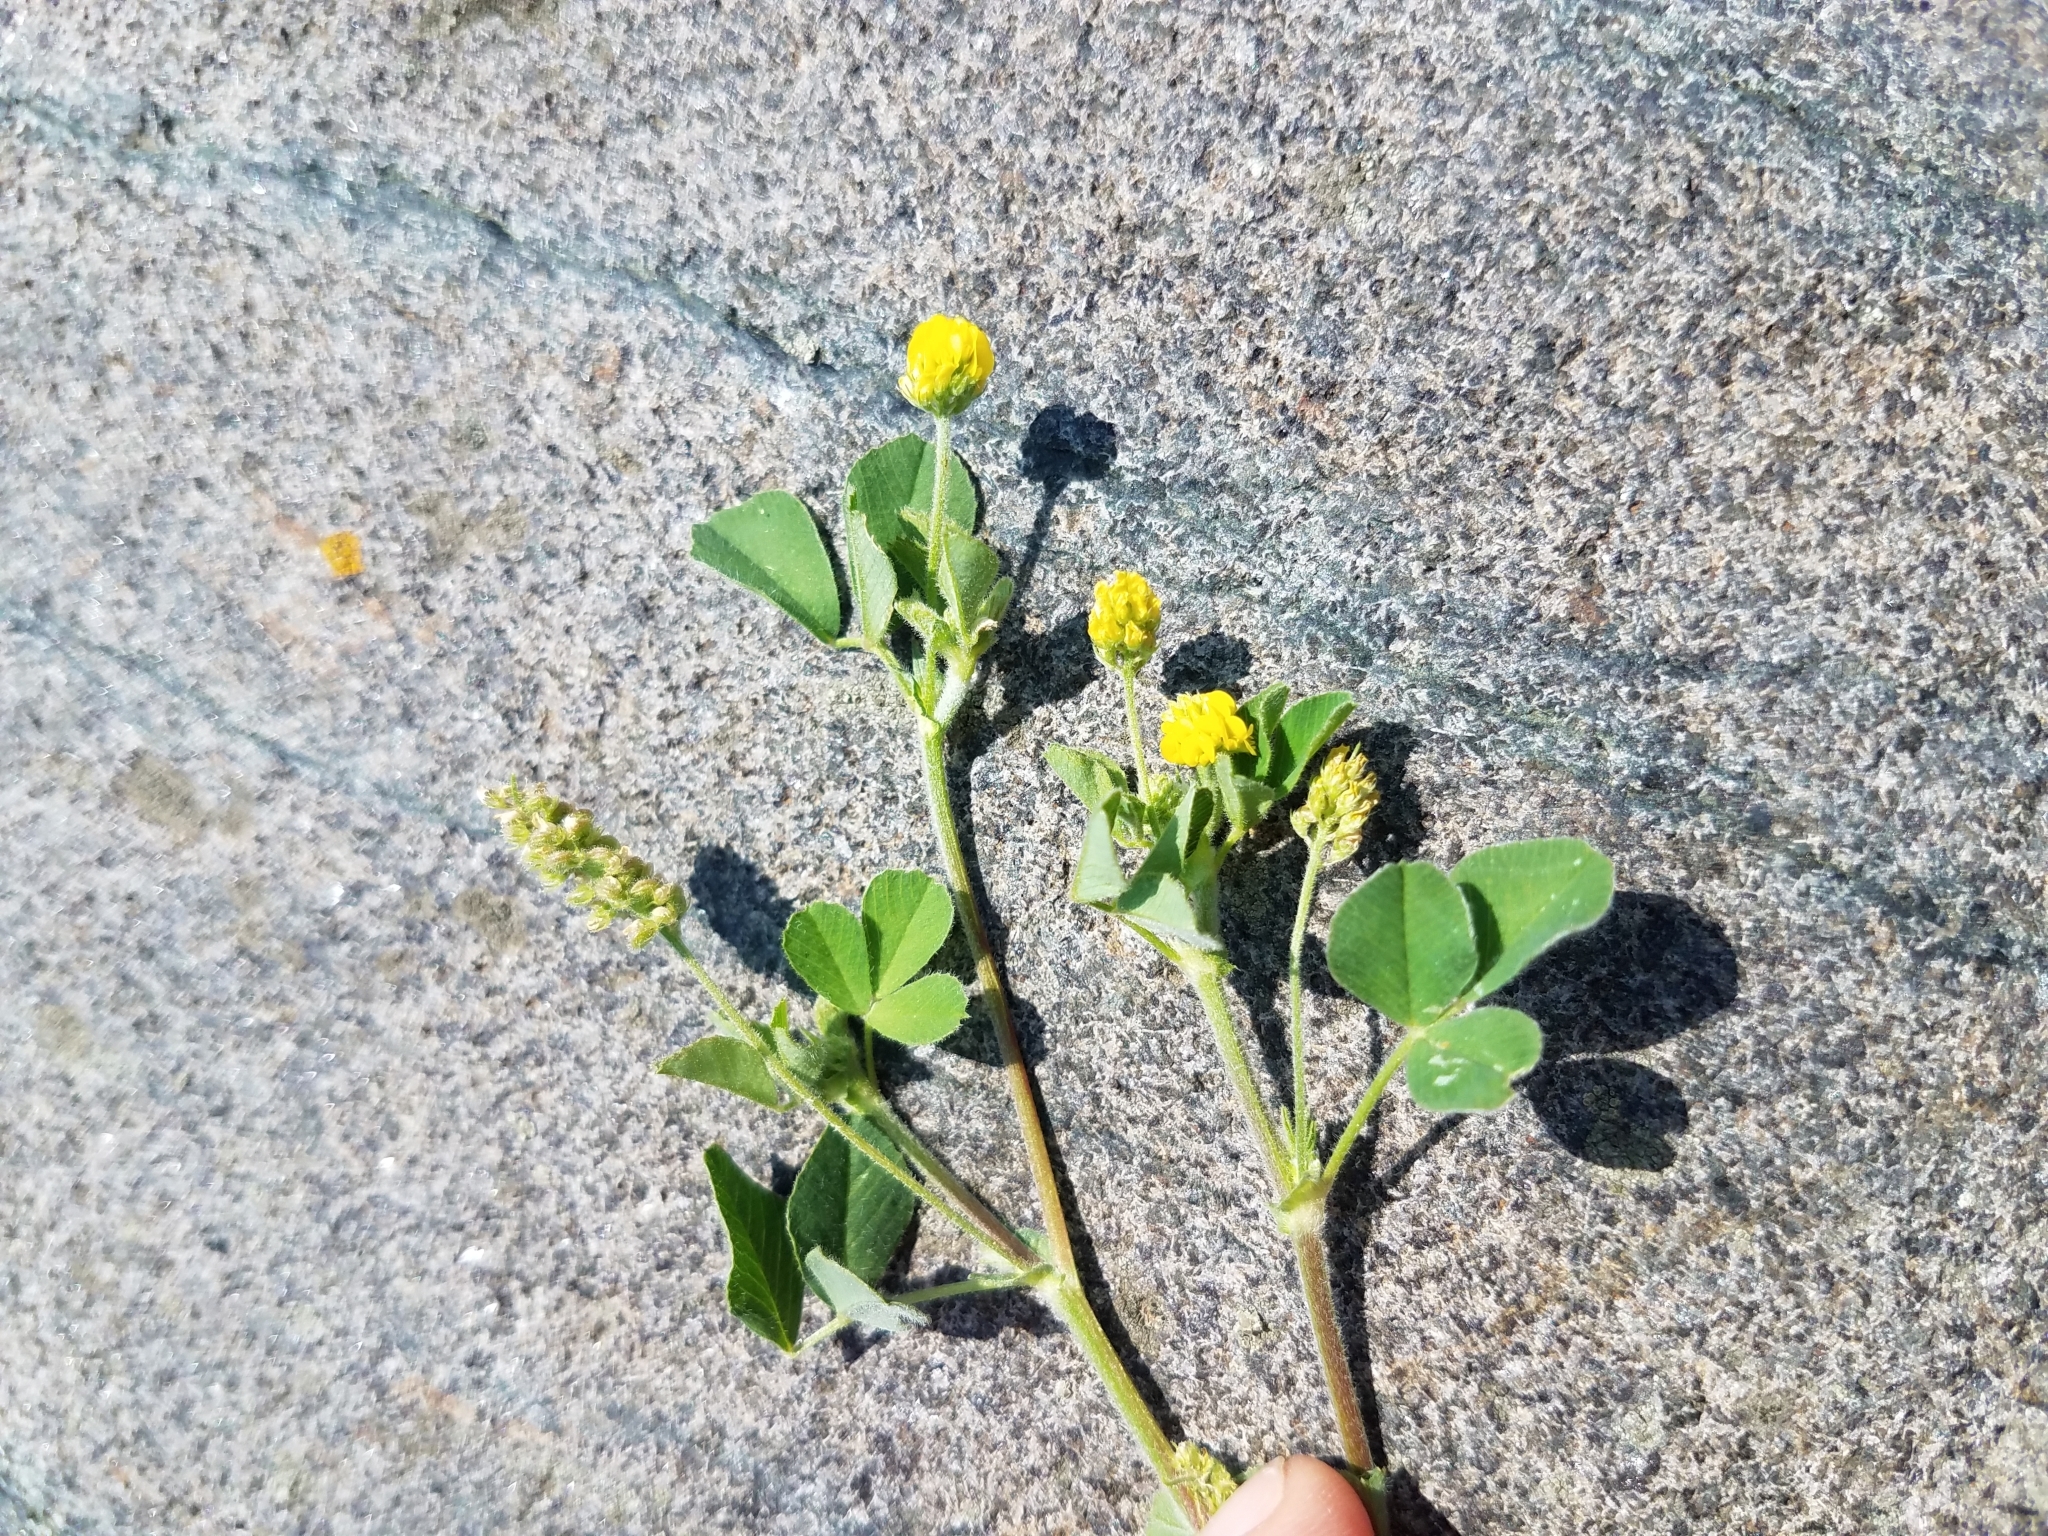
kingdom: Plantae
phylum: Tracheophyta
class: Magnoliopsida
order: Fabales
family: Fabaceae
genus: Medicago
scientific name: Medicago lupulina
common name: Black medick
